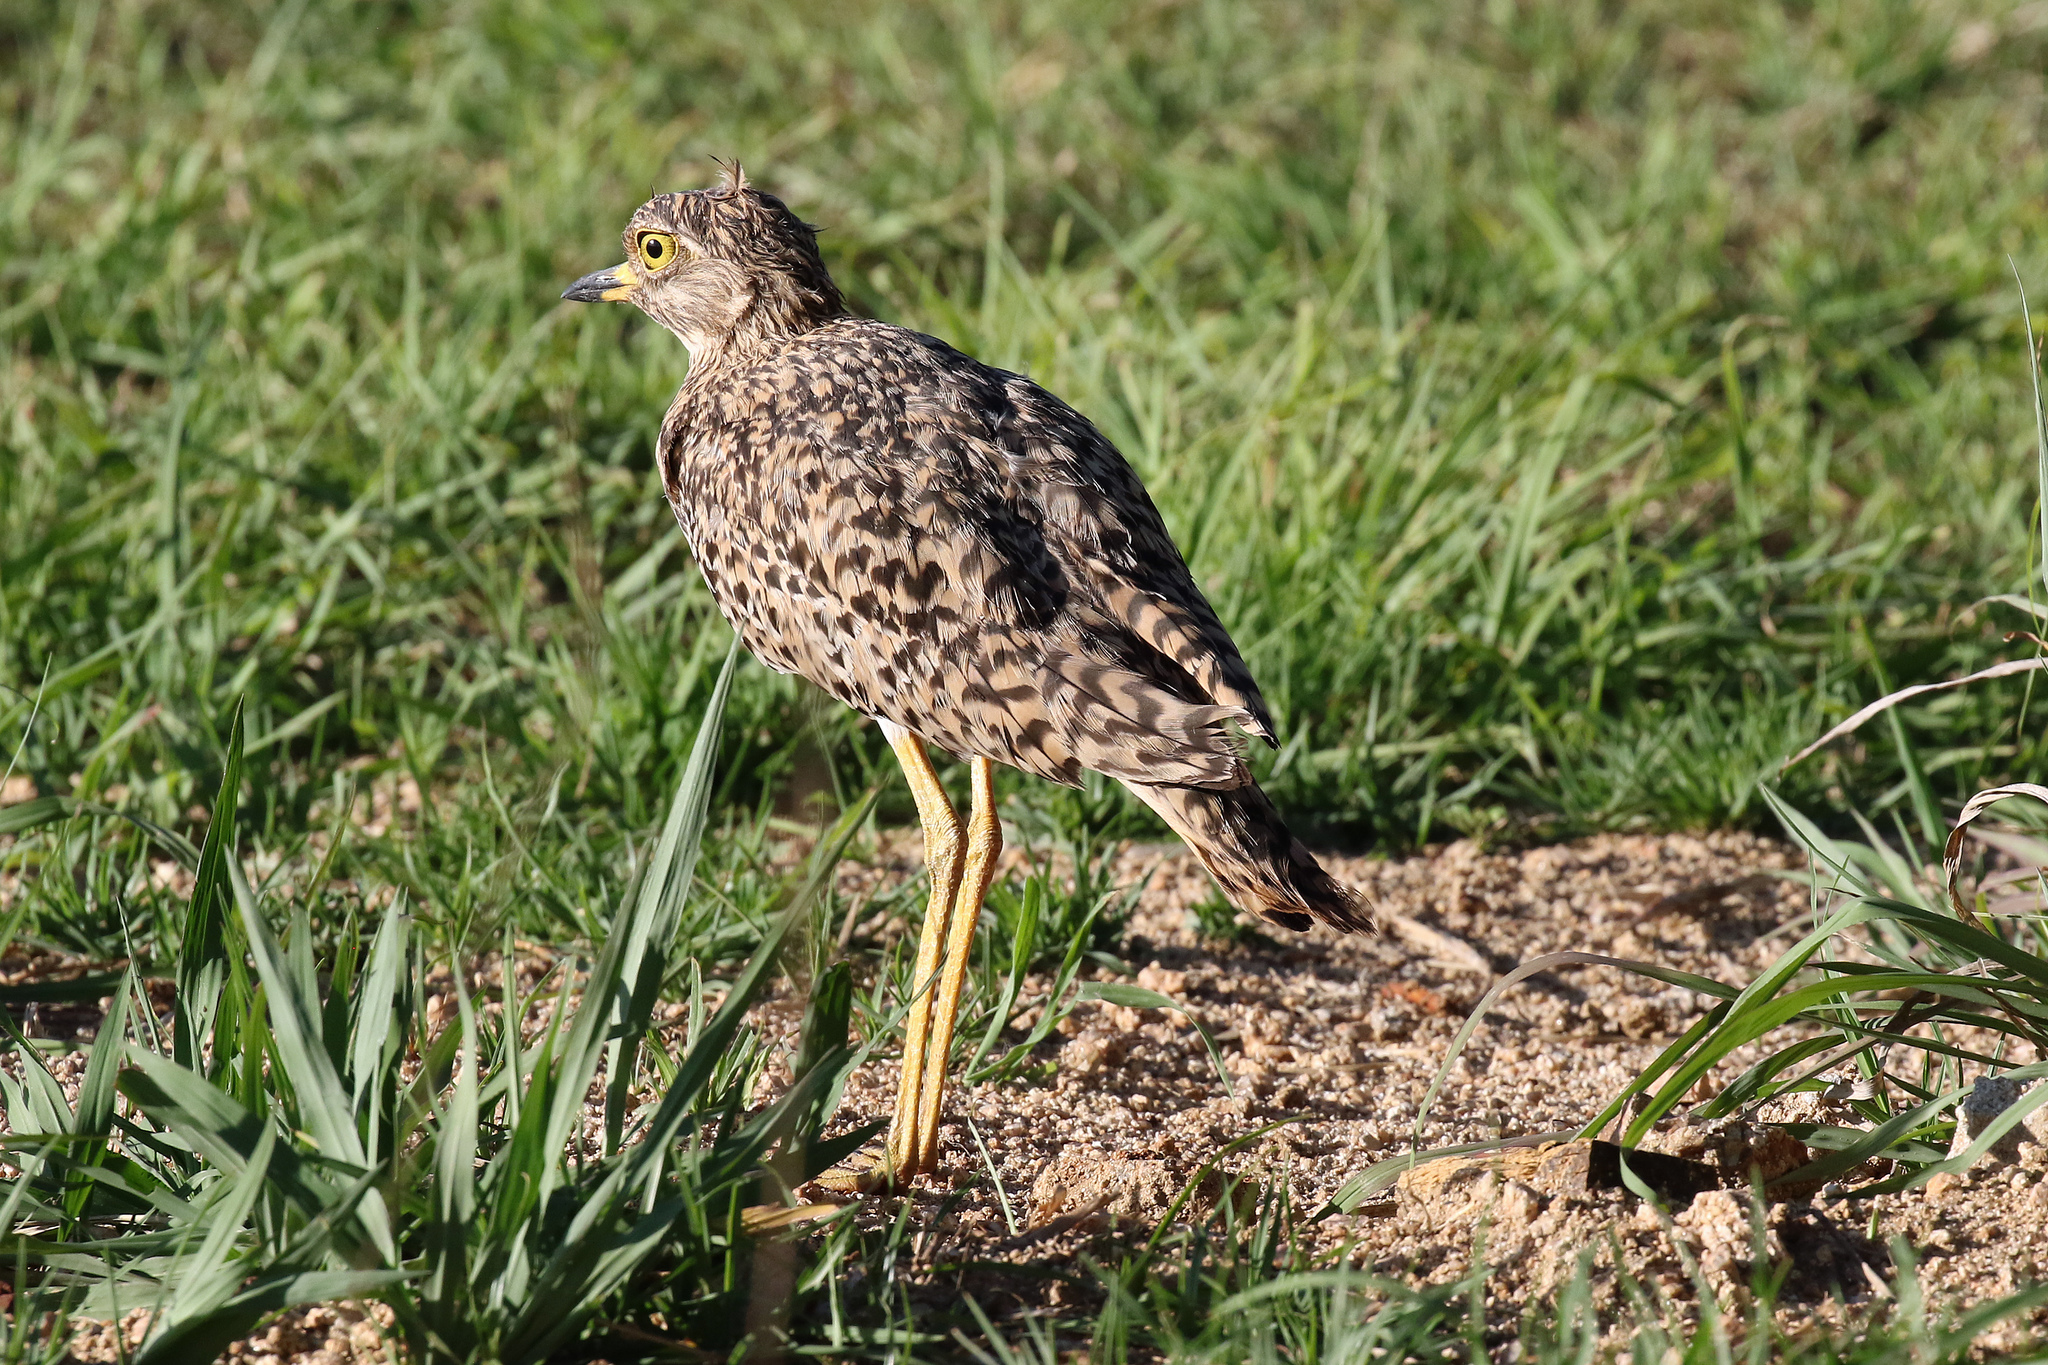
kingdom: Animalia
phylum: Chordata
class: Aves
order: Charadriiformes
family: Burhinidae
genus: Burhinus
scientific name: Burhinus capensis
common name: Spotted thick-knee
